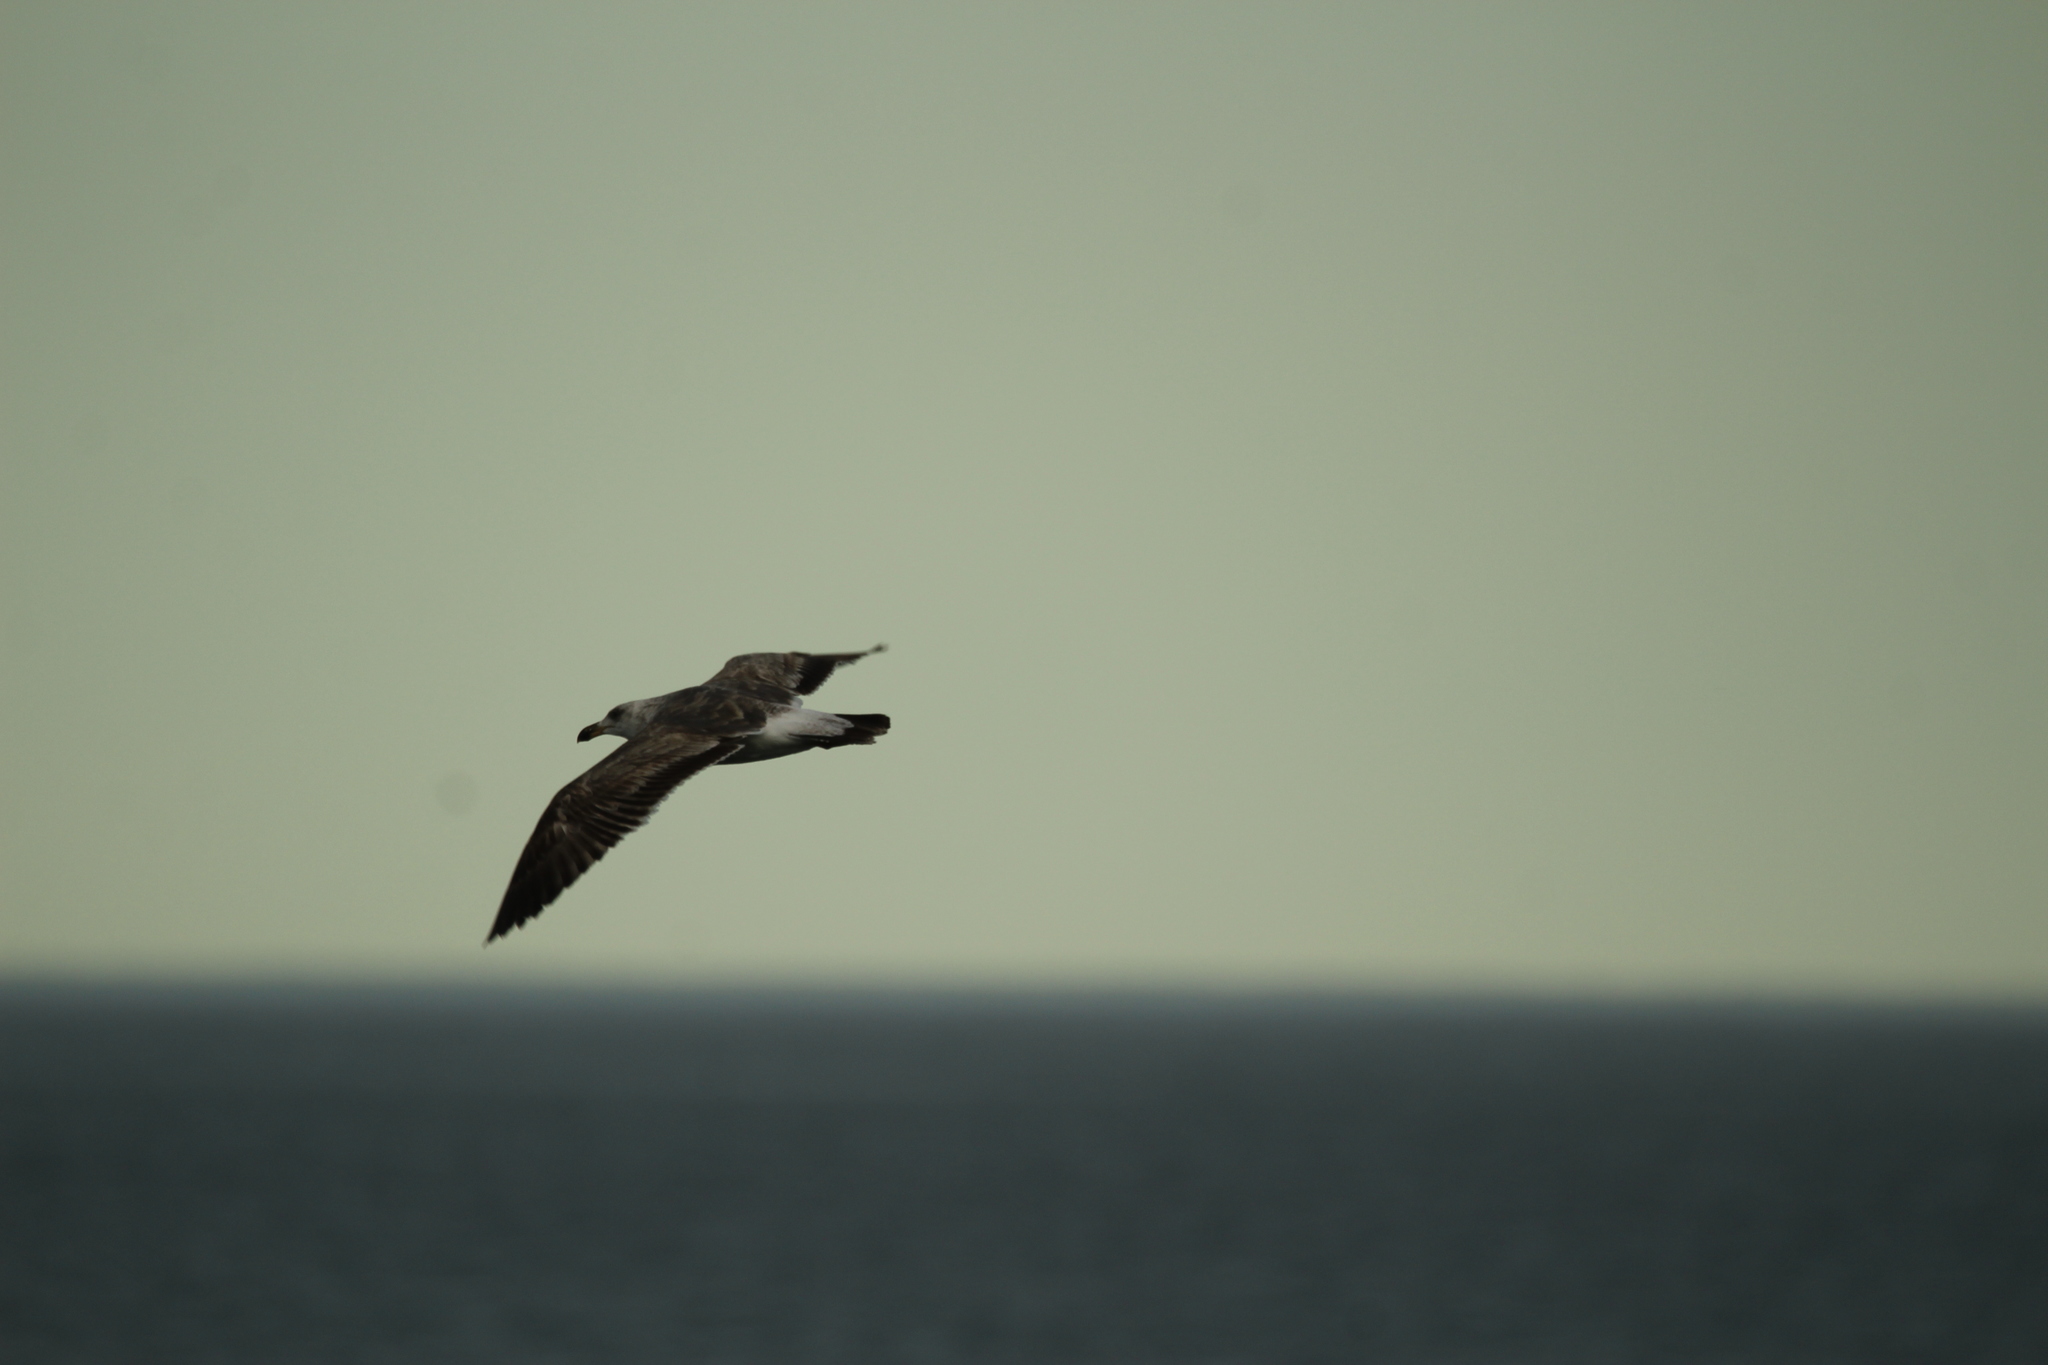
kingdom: Animalia
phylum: Chordata
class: Aves
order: Charadriiformes
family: Laridae
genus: Larus
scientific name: Larus livens
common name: Yellow-footed gull
